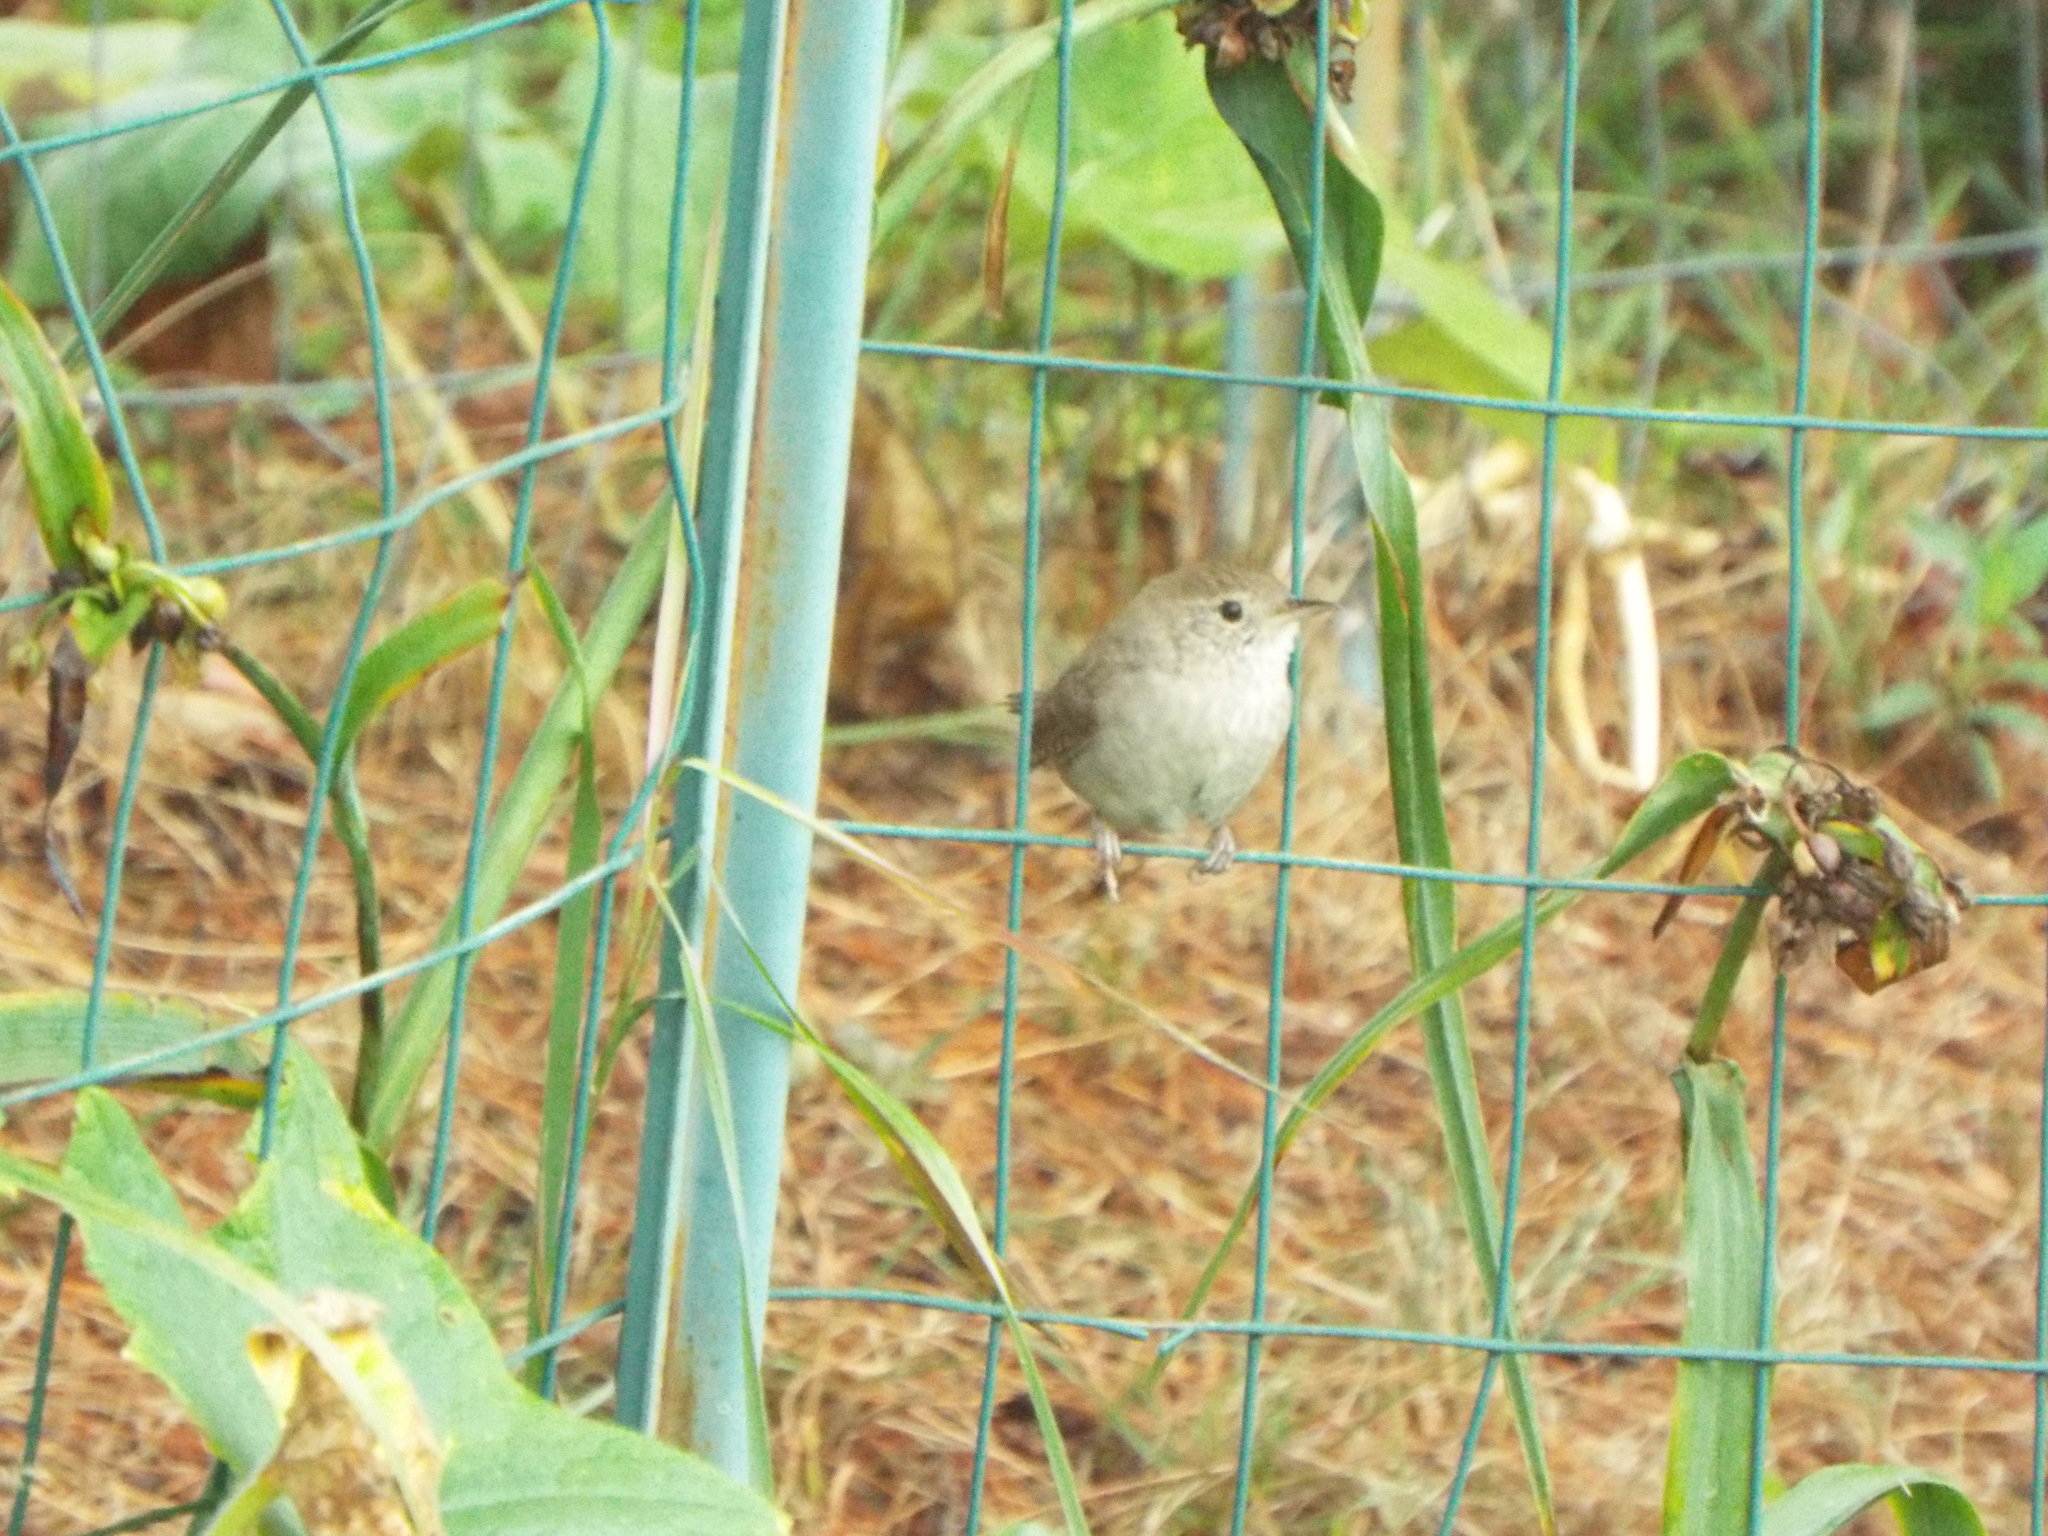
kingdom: Animalia
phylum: Chordata
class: Aves
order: Passeriformes
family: Troglodytidae
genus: Troglodytes
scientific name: Troglodytes aedon
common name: House wren
